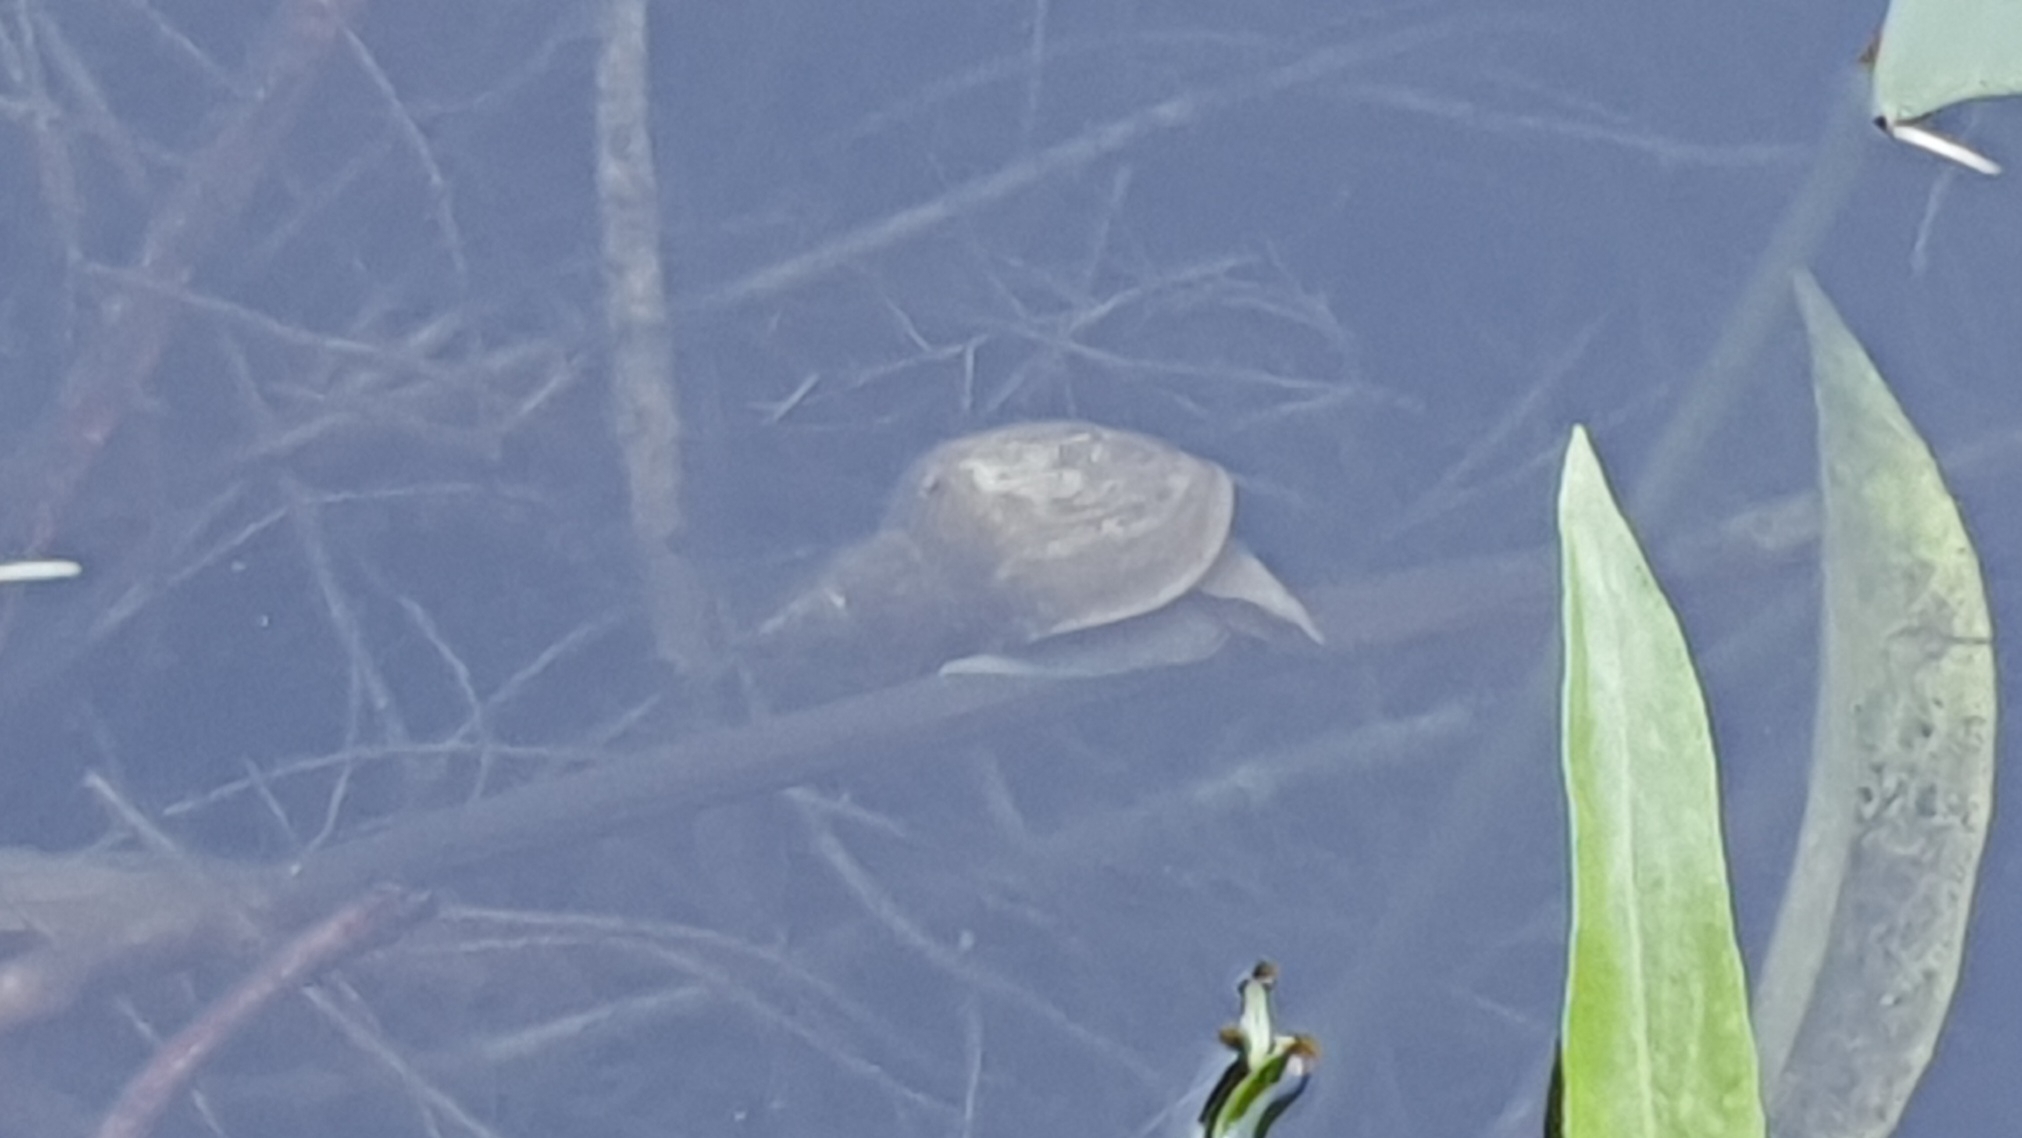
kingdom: Animalia
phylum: Mollusca
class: Gastropoda
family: Lymnaeidae
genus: Lymnaea
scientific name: Lymnaea stagnalis
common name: Great pond snail
